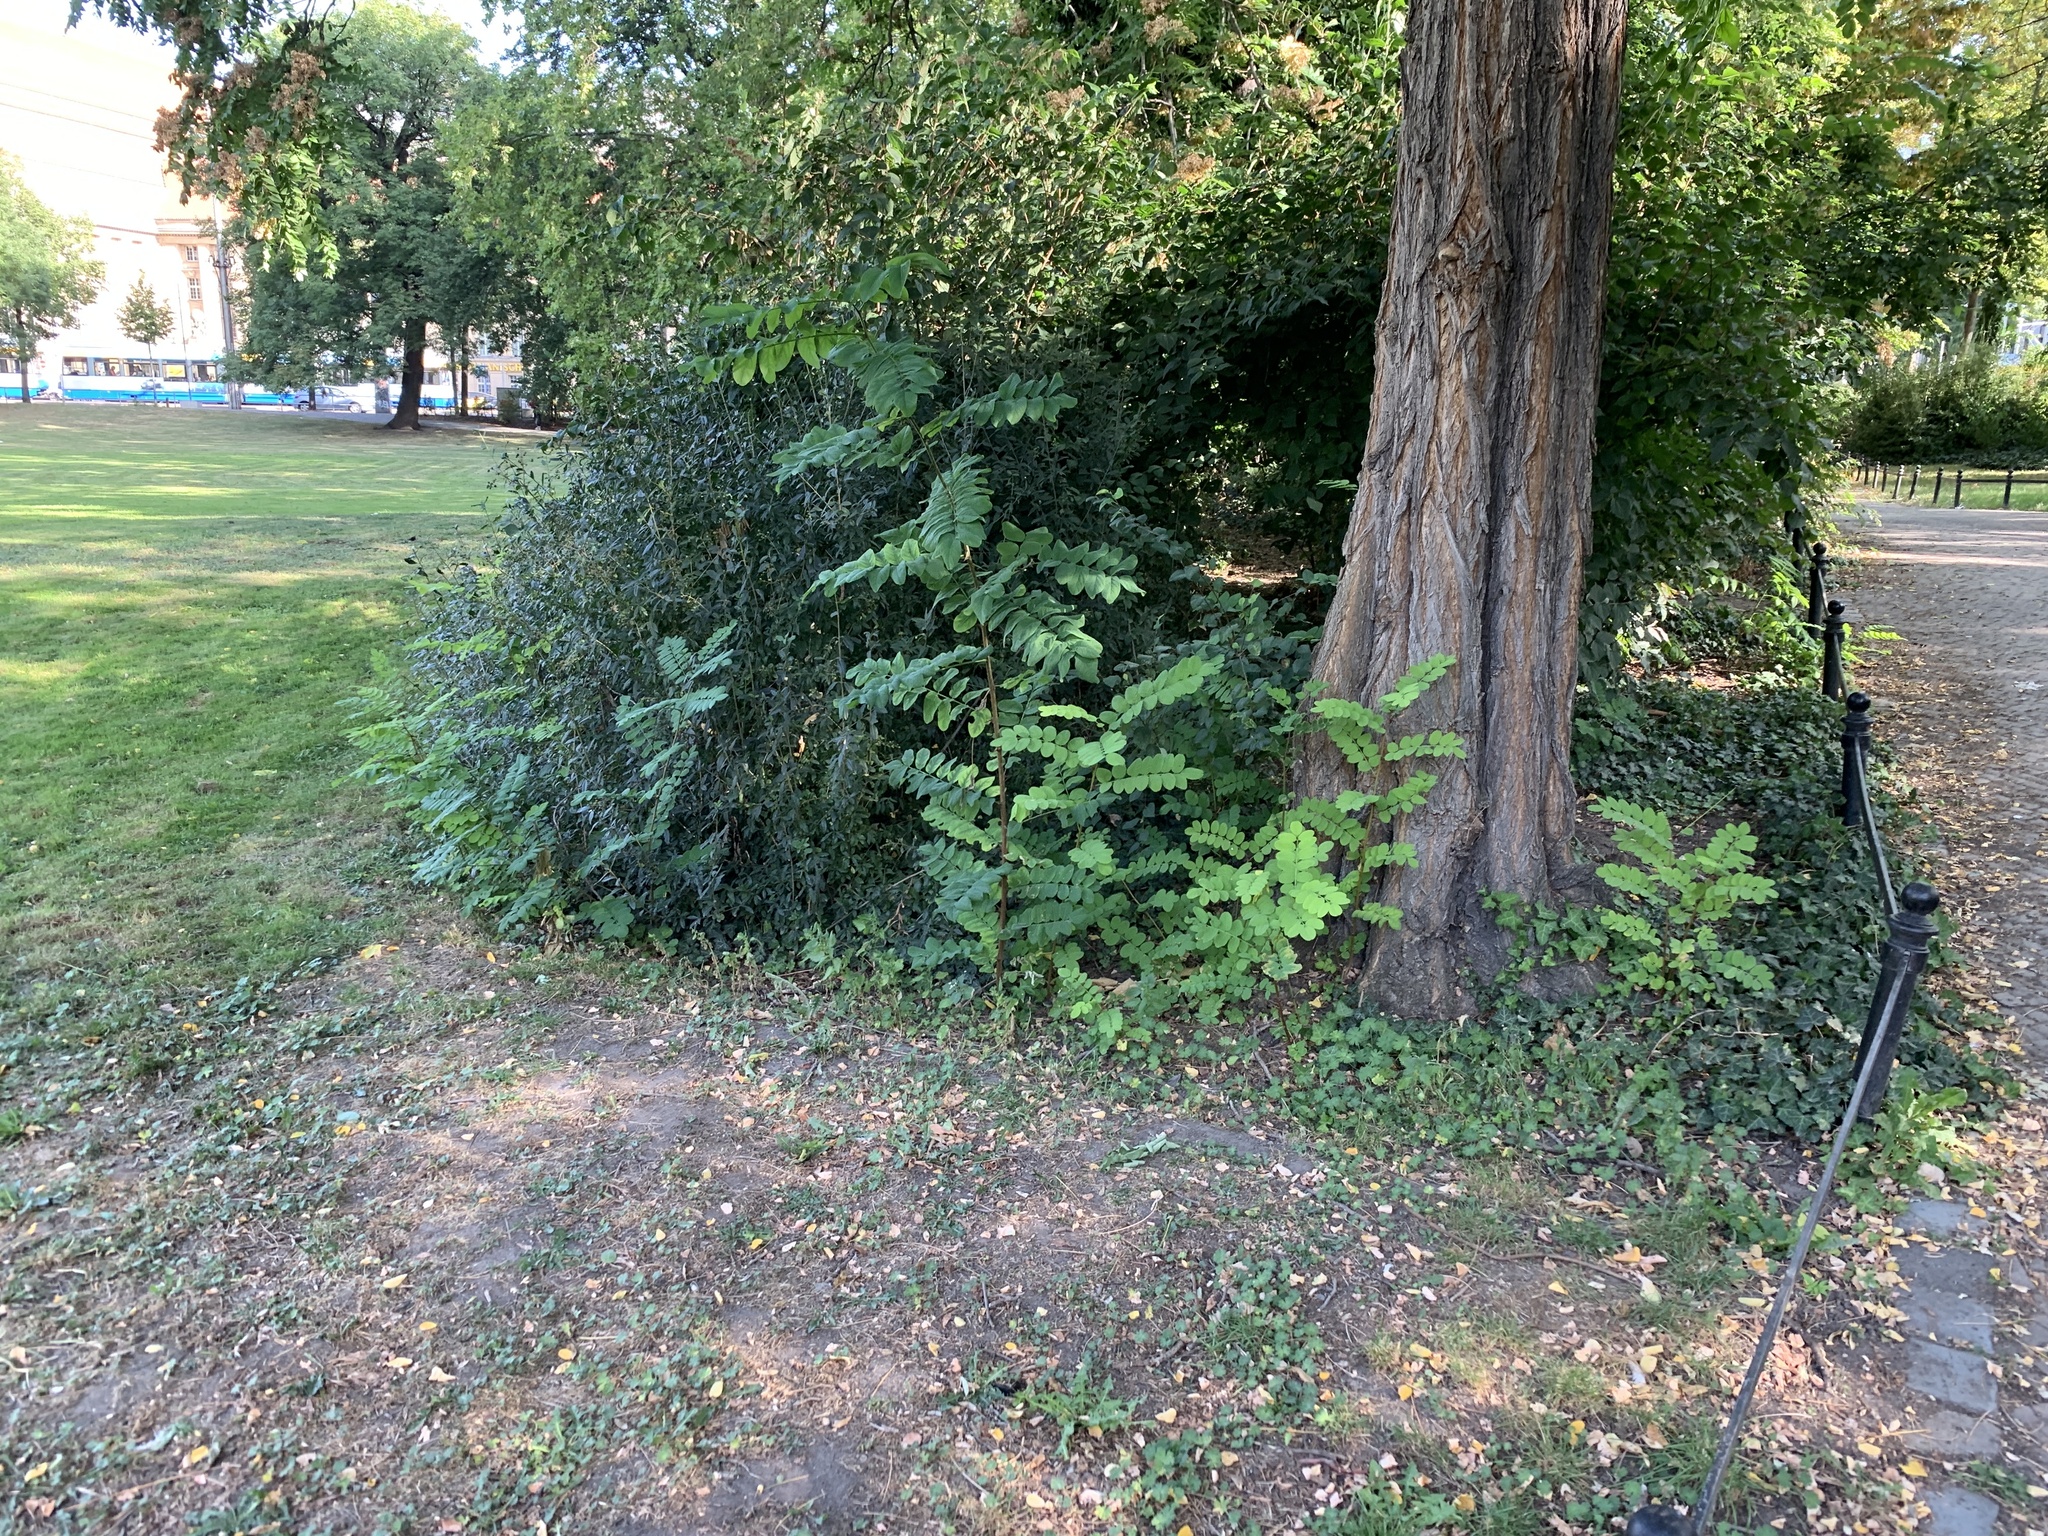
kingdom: Plantae
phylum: Tracheophyta
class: Magnoliopsida
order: Fabales
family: Fabaceae
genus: Robinia
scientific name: Robinia pseudoacacia
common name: Black locust
